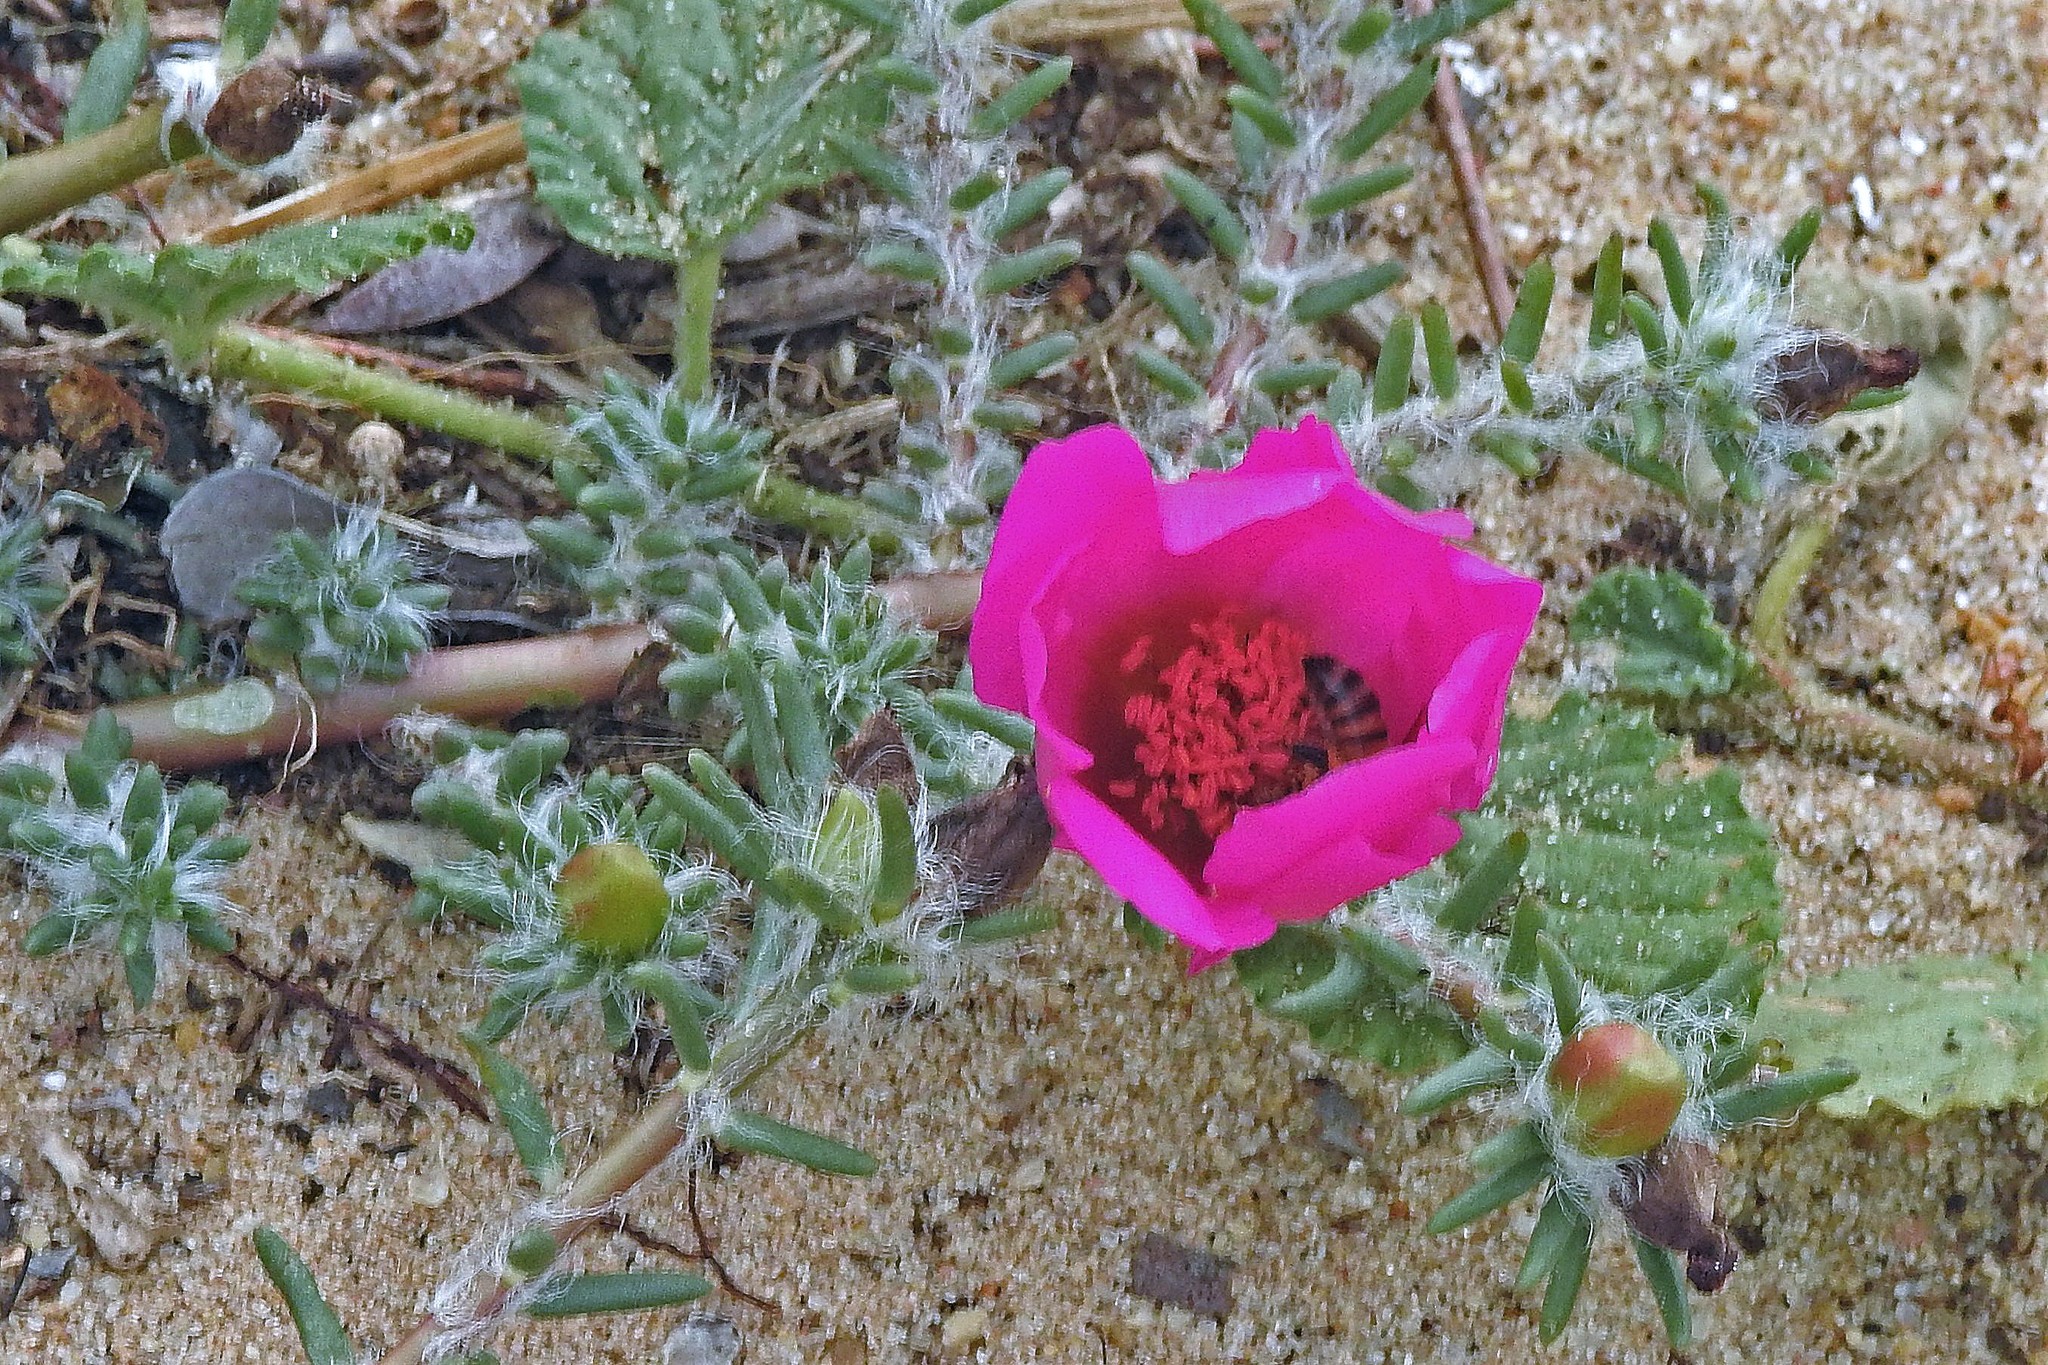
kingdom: Plantae
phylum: Tracheophyta
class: Magnoliopsida
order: Caryophyllales
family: Portulacaceae
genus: Portulaca
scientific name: Portulaca grandiflora
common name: Moss-rose
